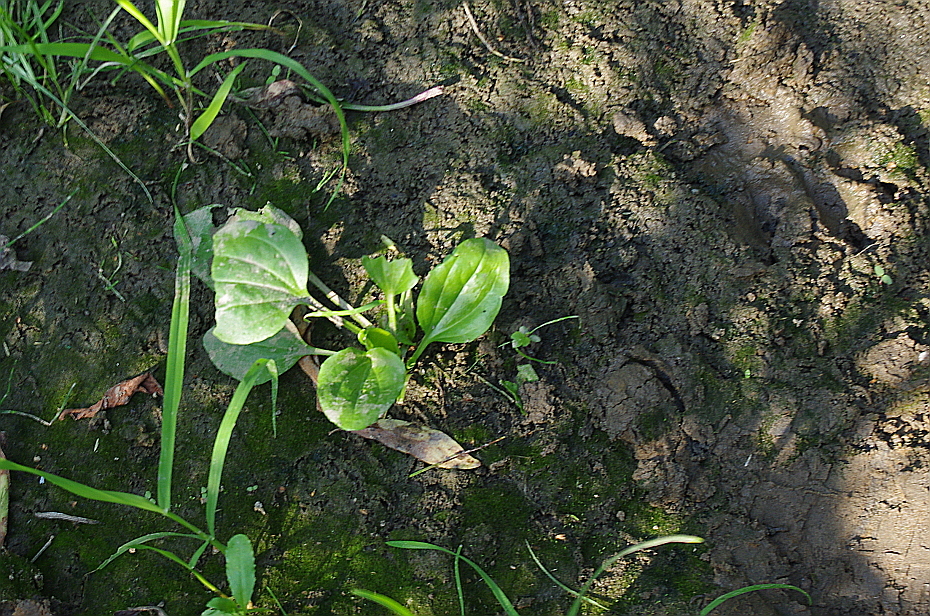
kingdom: Plantae
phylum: Tracheophyta
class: Magnoliopsida
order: Lamiales
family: Plantaginaceae
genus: Plantago
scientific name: Plantago major
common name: Common plantain
